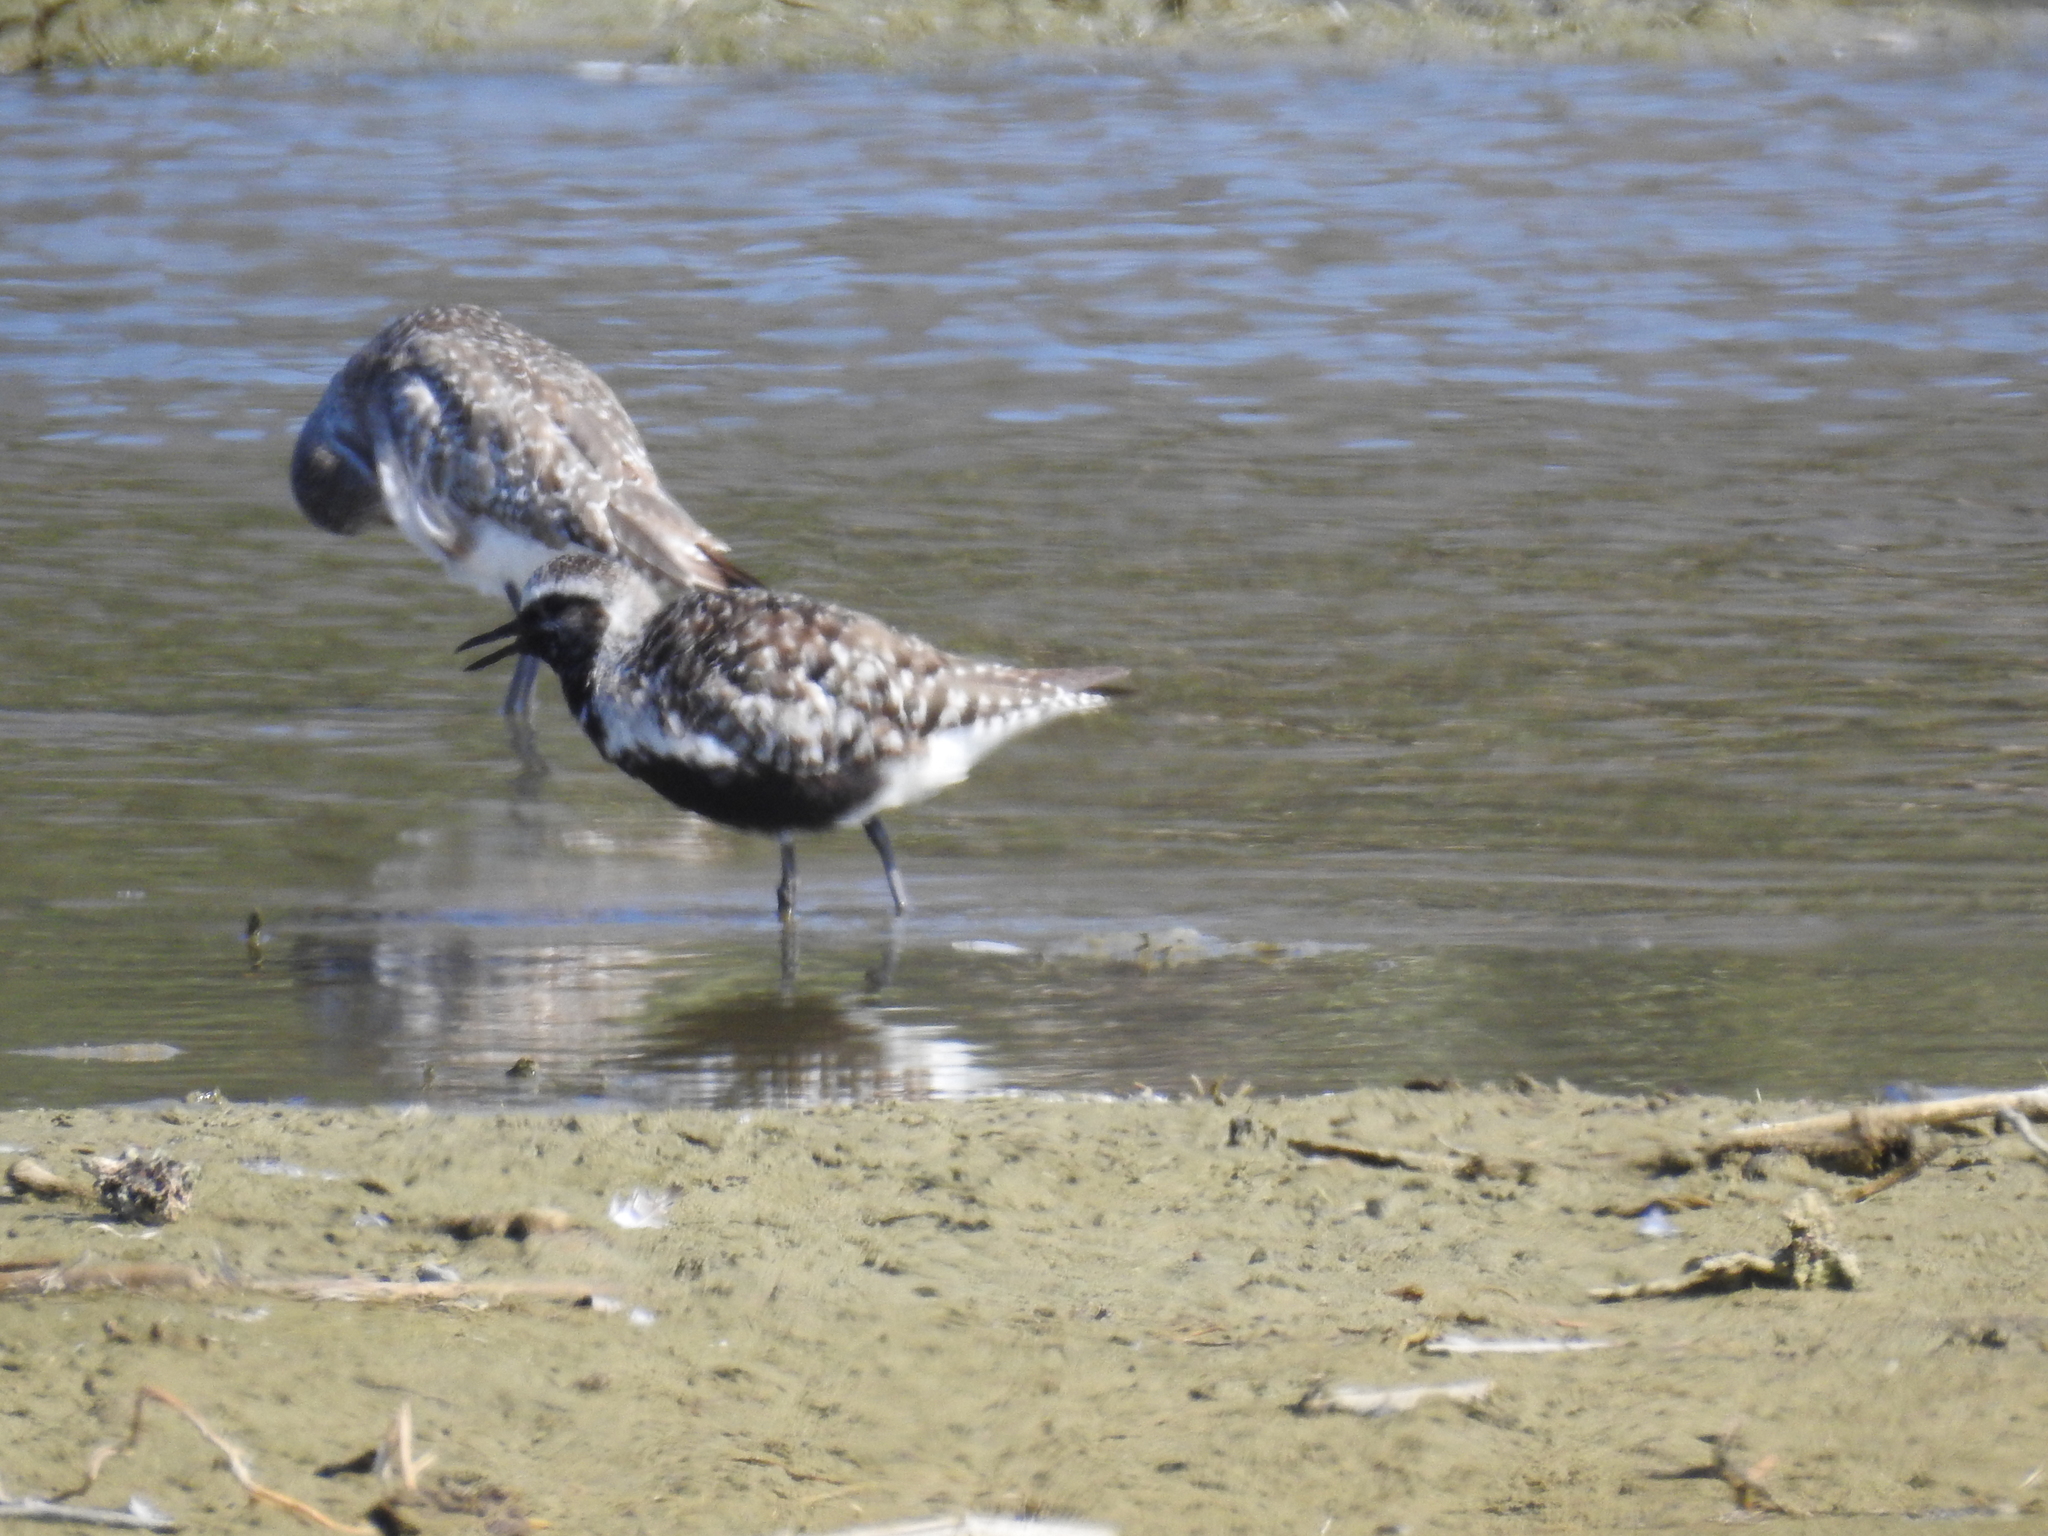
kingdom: Animalia
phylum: Chordata
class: Aves
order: Charadriiformes
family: Charadriidae
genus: Pluvialis
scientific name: Pluvialis squatarola
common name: Grey plover
